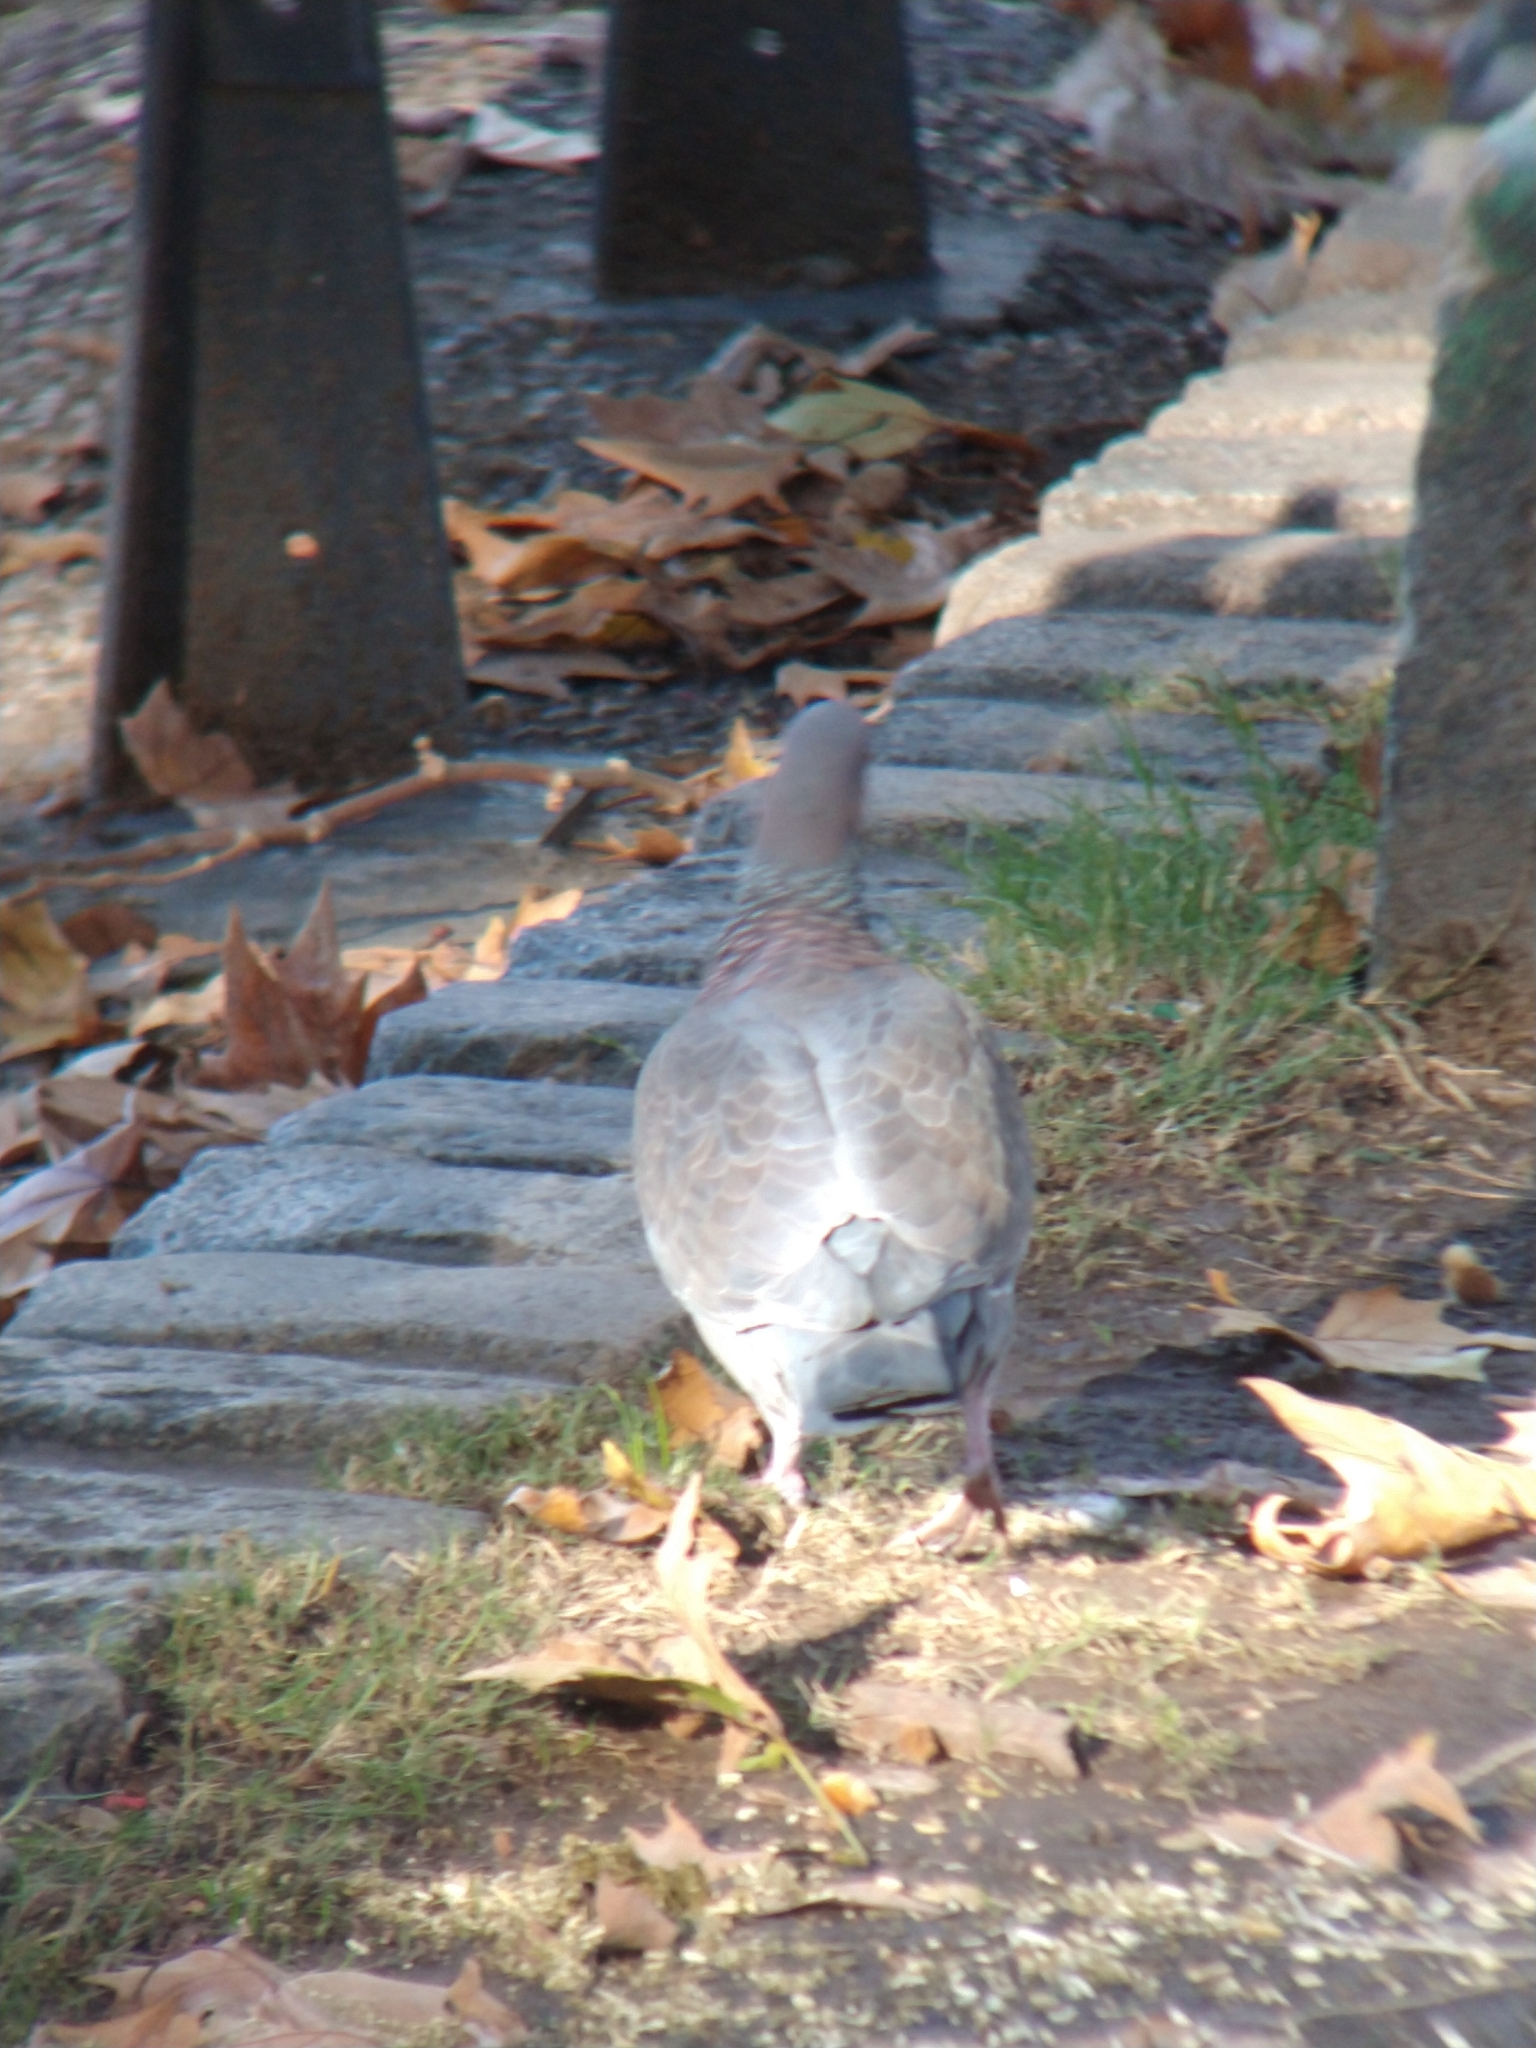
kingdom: Animalia
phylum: Chordata
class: Aves
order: Columbiformes
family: Columbidae
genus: Patagioenas
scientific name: Patagioenas picazuro
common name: Picazuro pigeon
